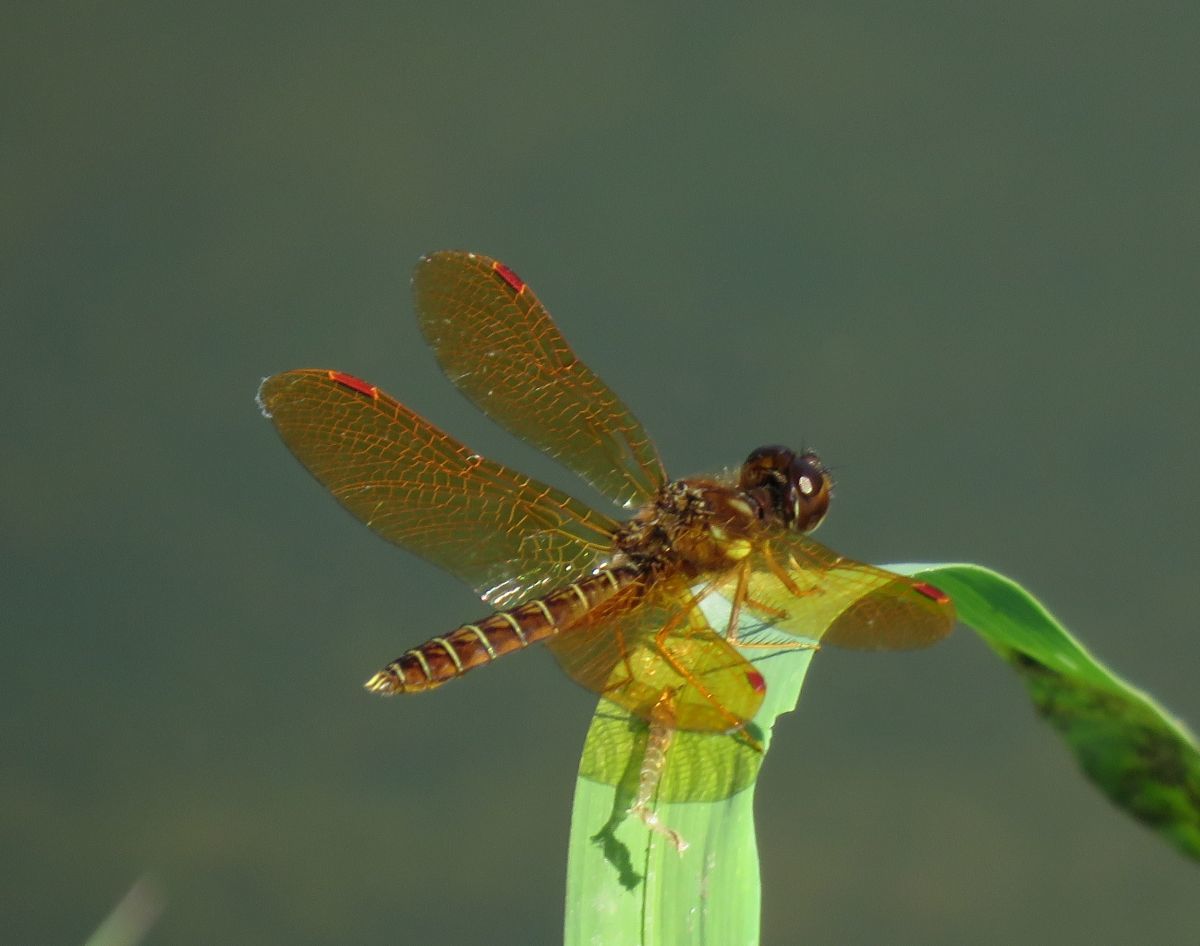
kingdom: Animalia
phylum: Arthropoda
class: Insecta
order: Odonata
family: Libellulidae
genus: Perithemis
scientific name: Perithemis tenera
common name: Eastern amberwing
